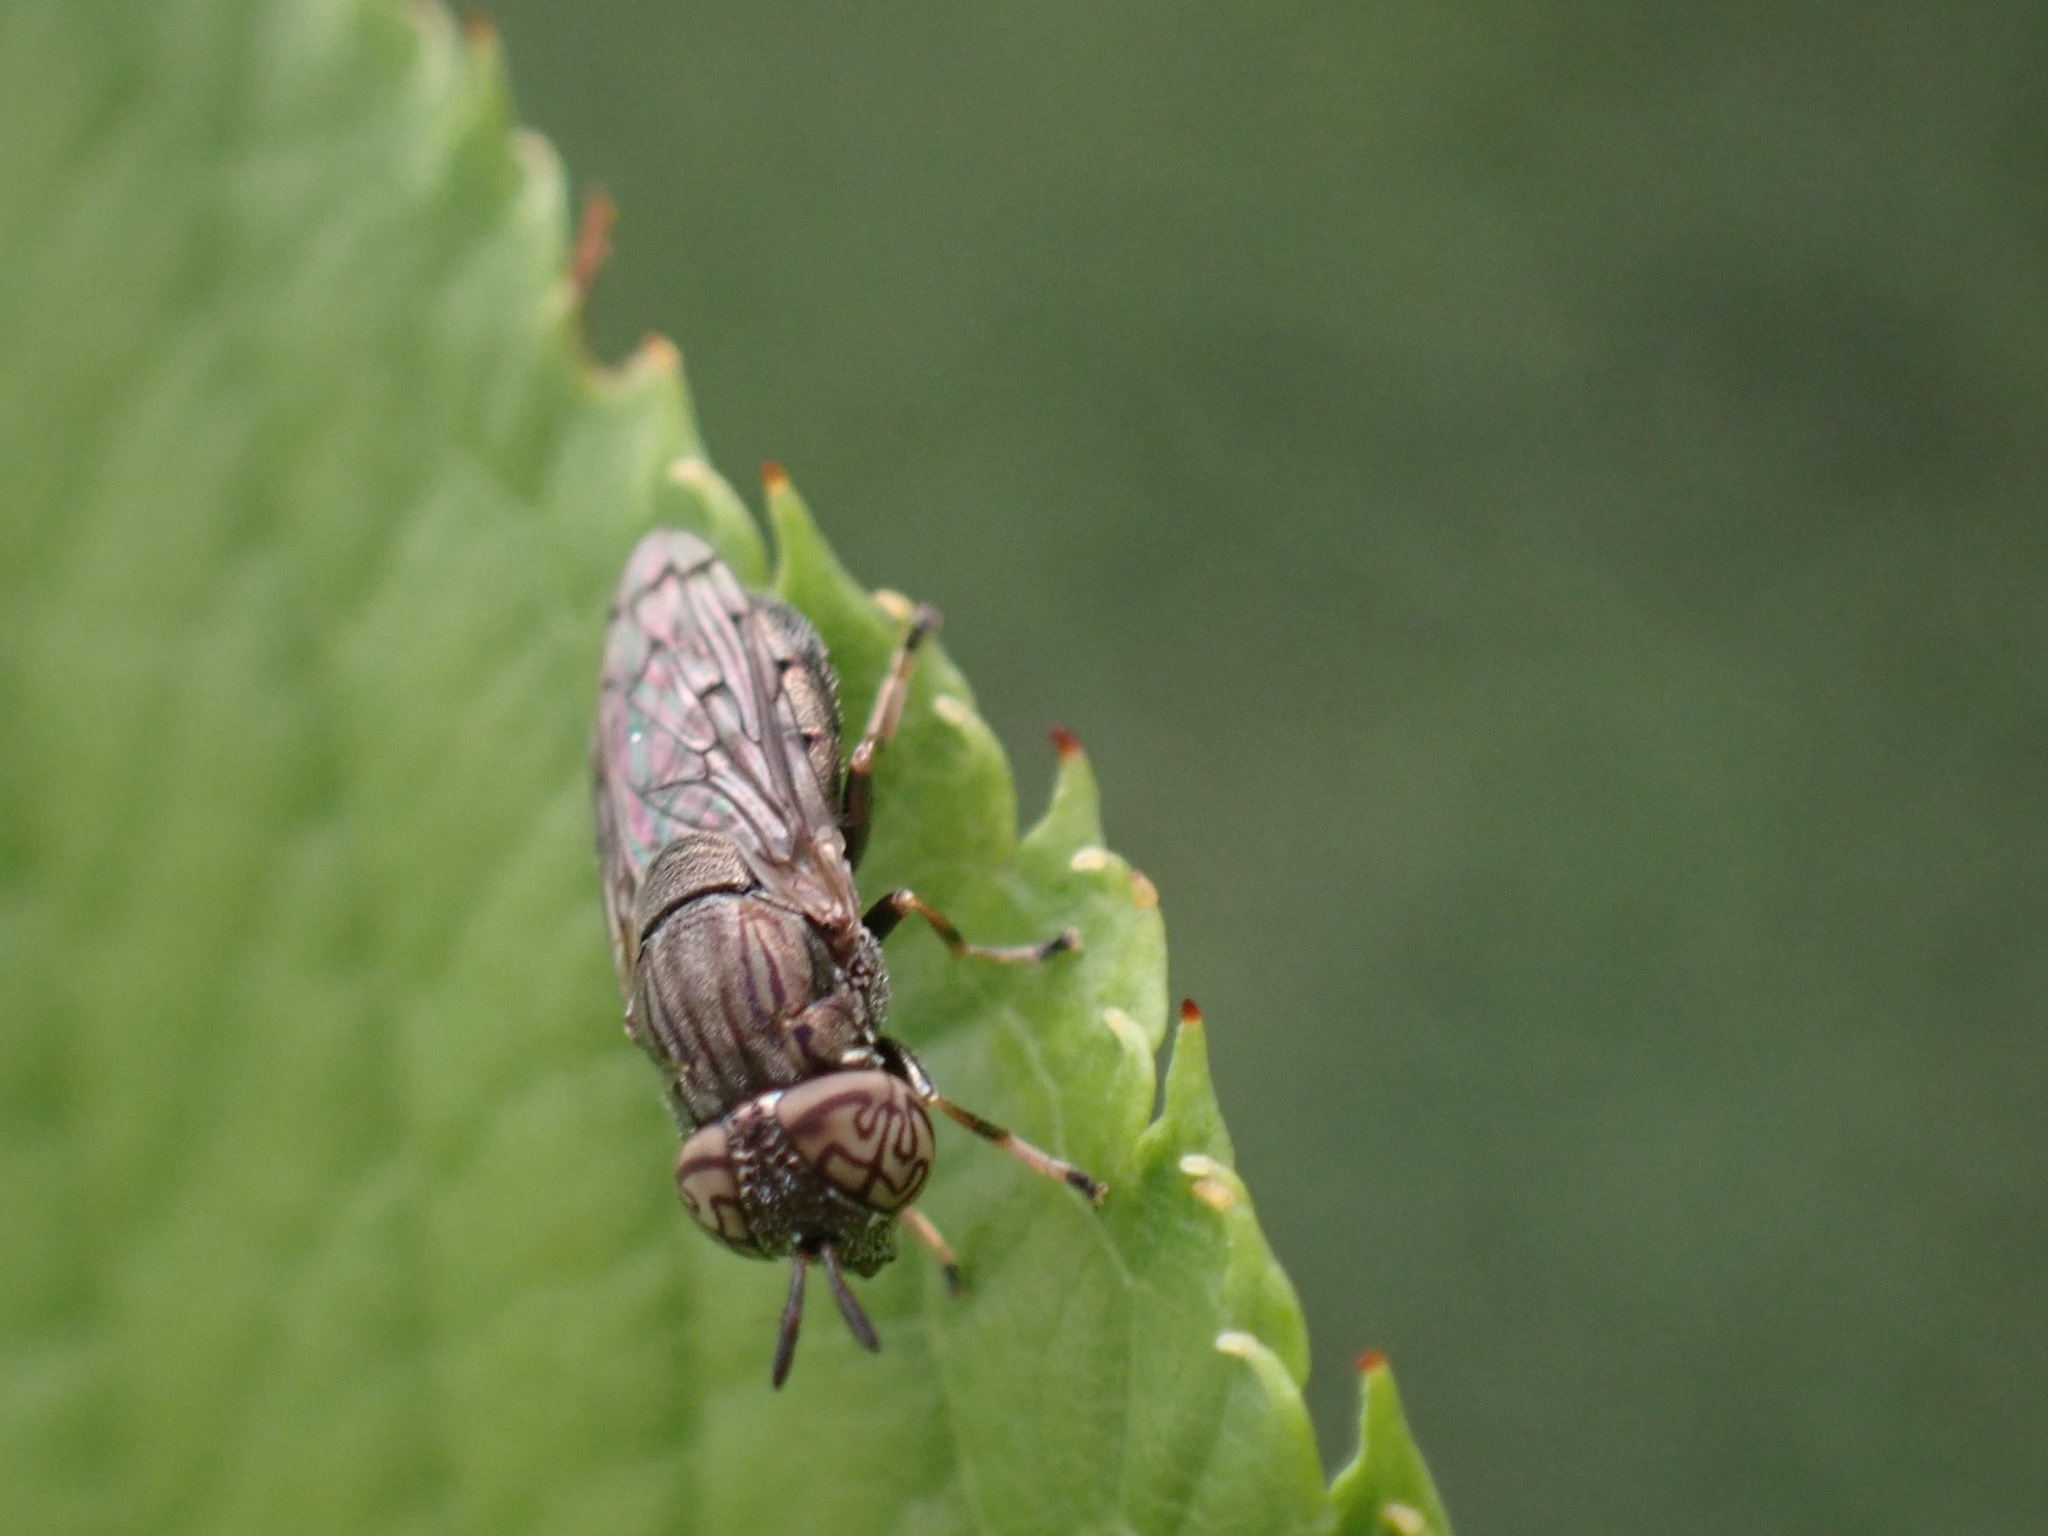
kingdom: Animalia
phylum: Arthropoda
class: Insecta
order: Diptera
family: Syrphidae
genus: Orthonevra
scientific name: Orthonevra nitida
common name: Wavy mucksucker
